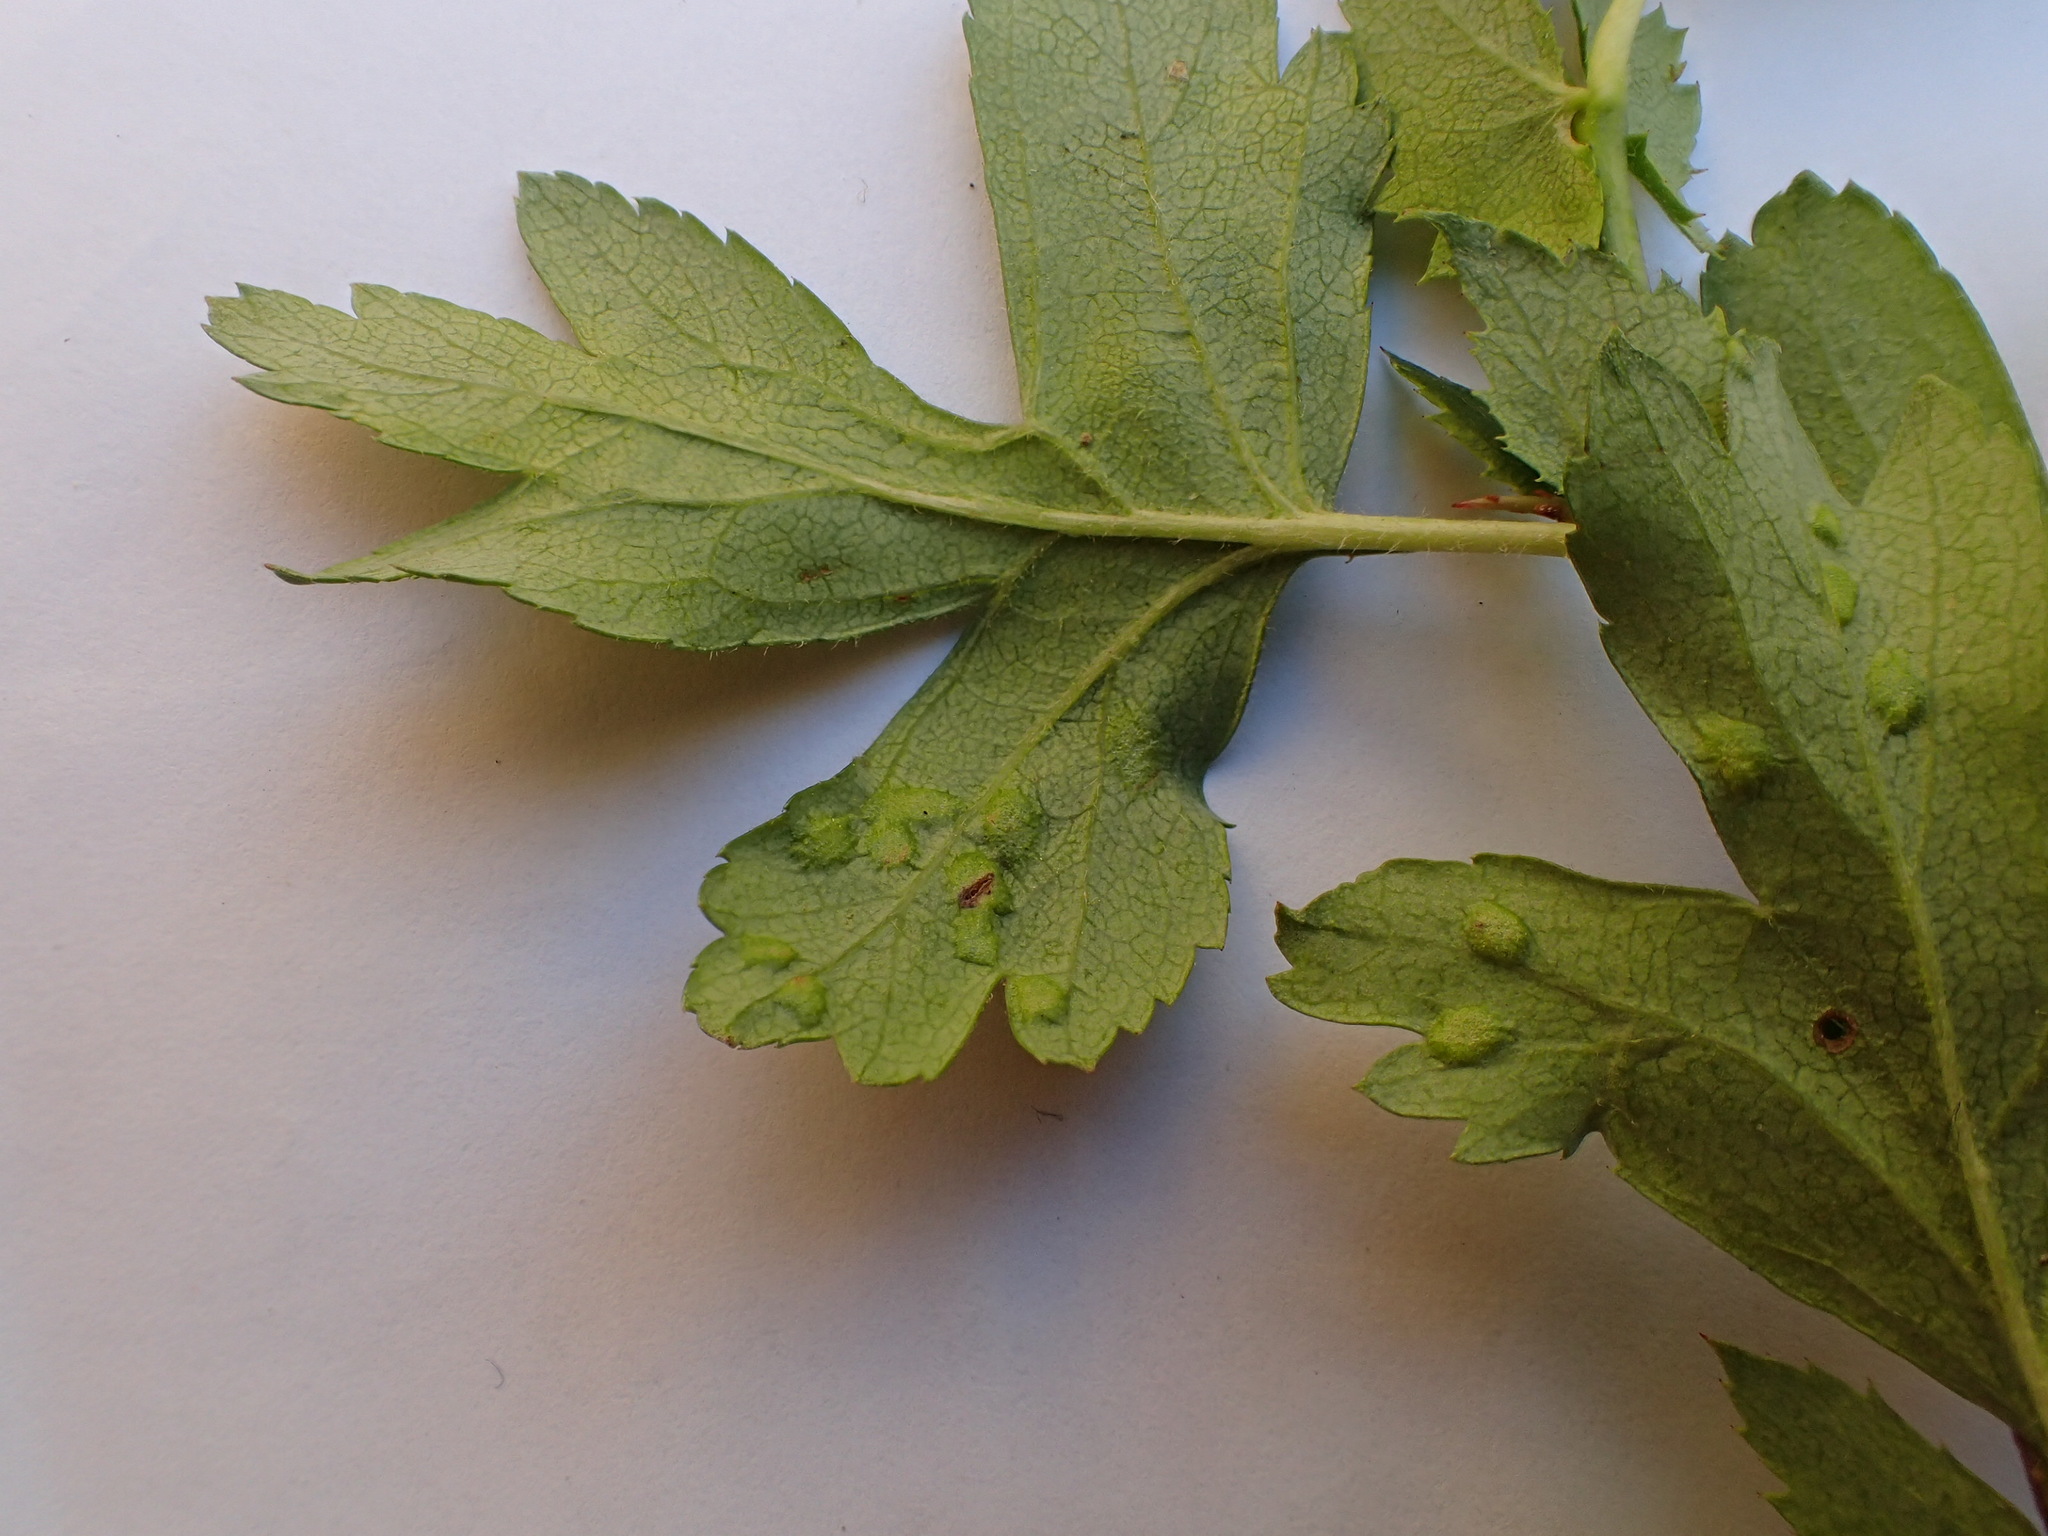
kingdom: Animalia
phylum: Arthropoda
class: Arachnida
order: Trombidiformes
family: Eriophyidae
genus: Eriophyes
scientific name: Eriophyes crataegi
